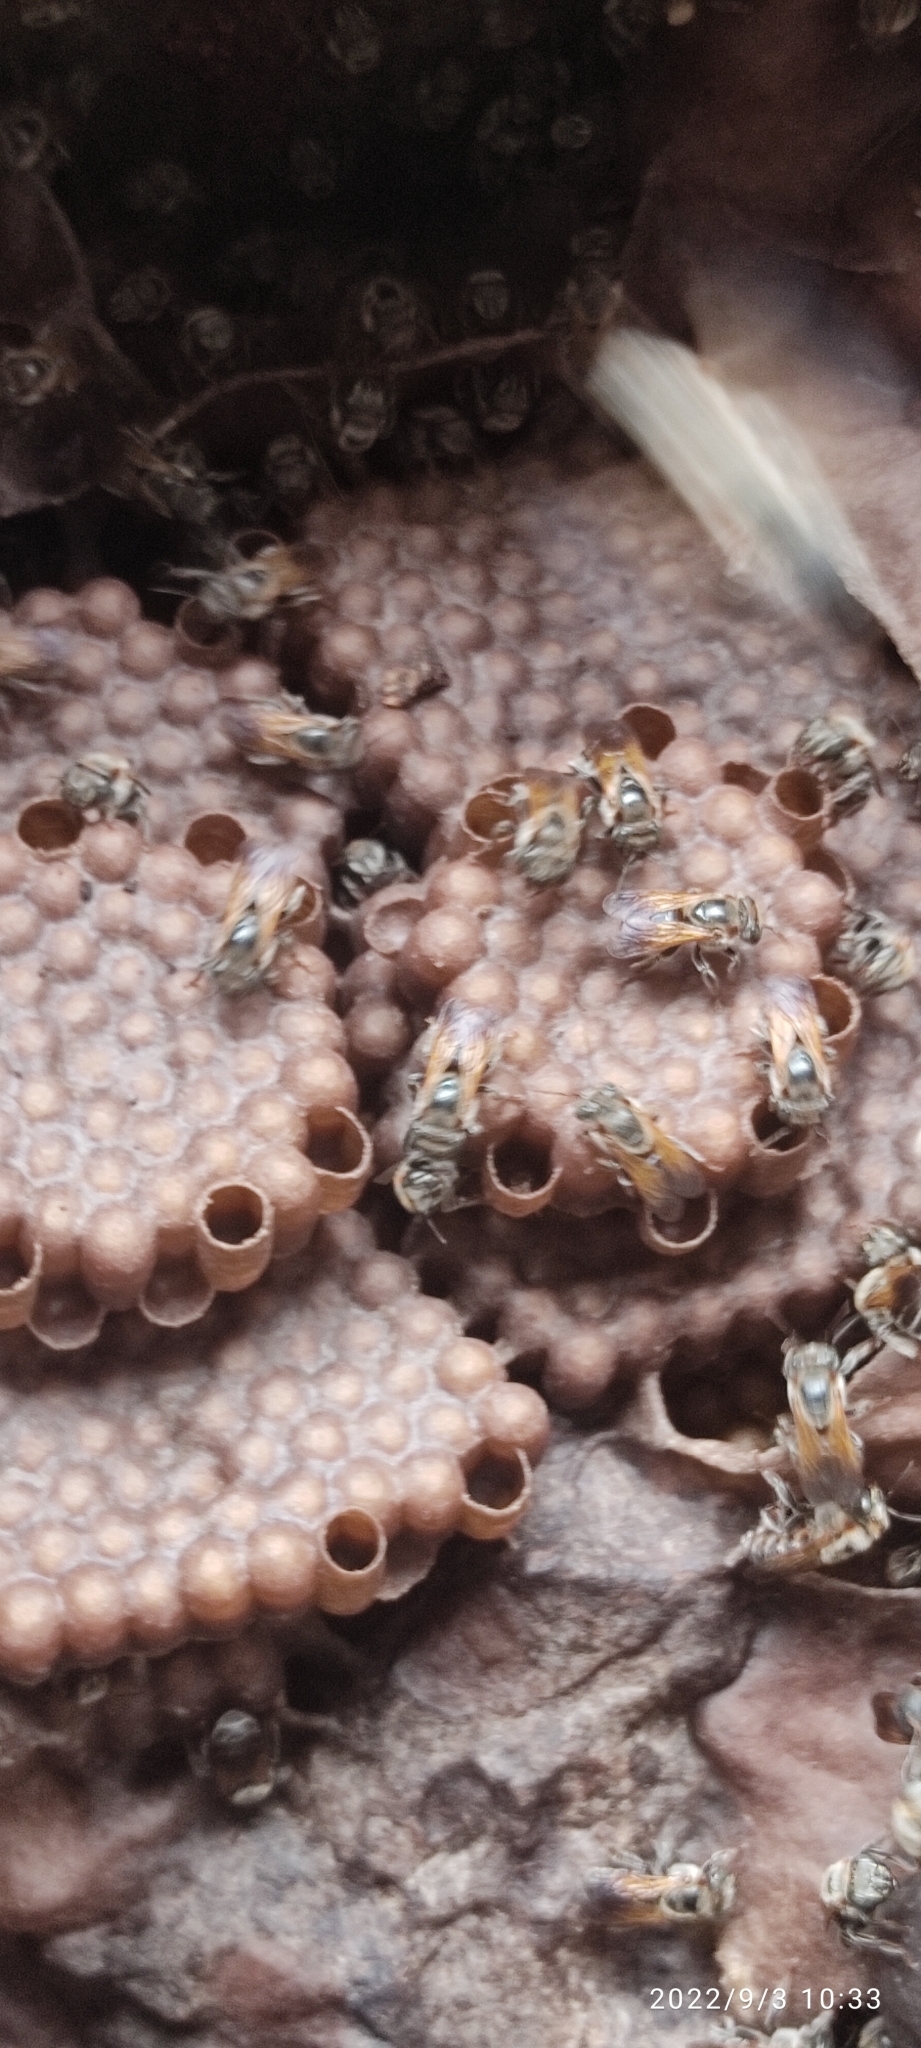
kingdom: Animalia
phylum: Arthropoda
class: Insecta
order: Hymenoptera
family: Apidae
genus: Melipona
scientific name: Melipona grandis
